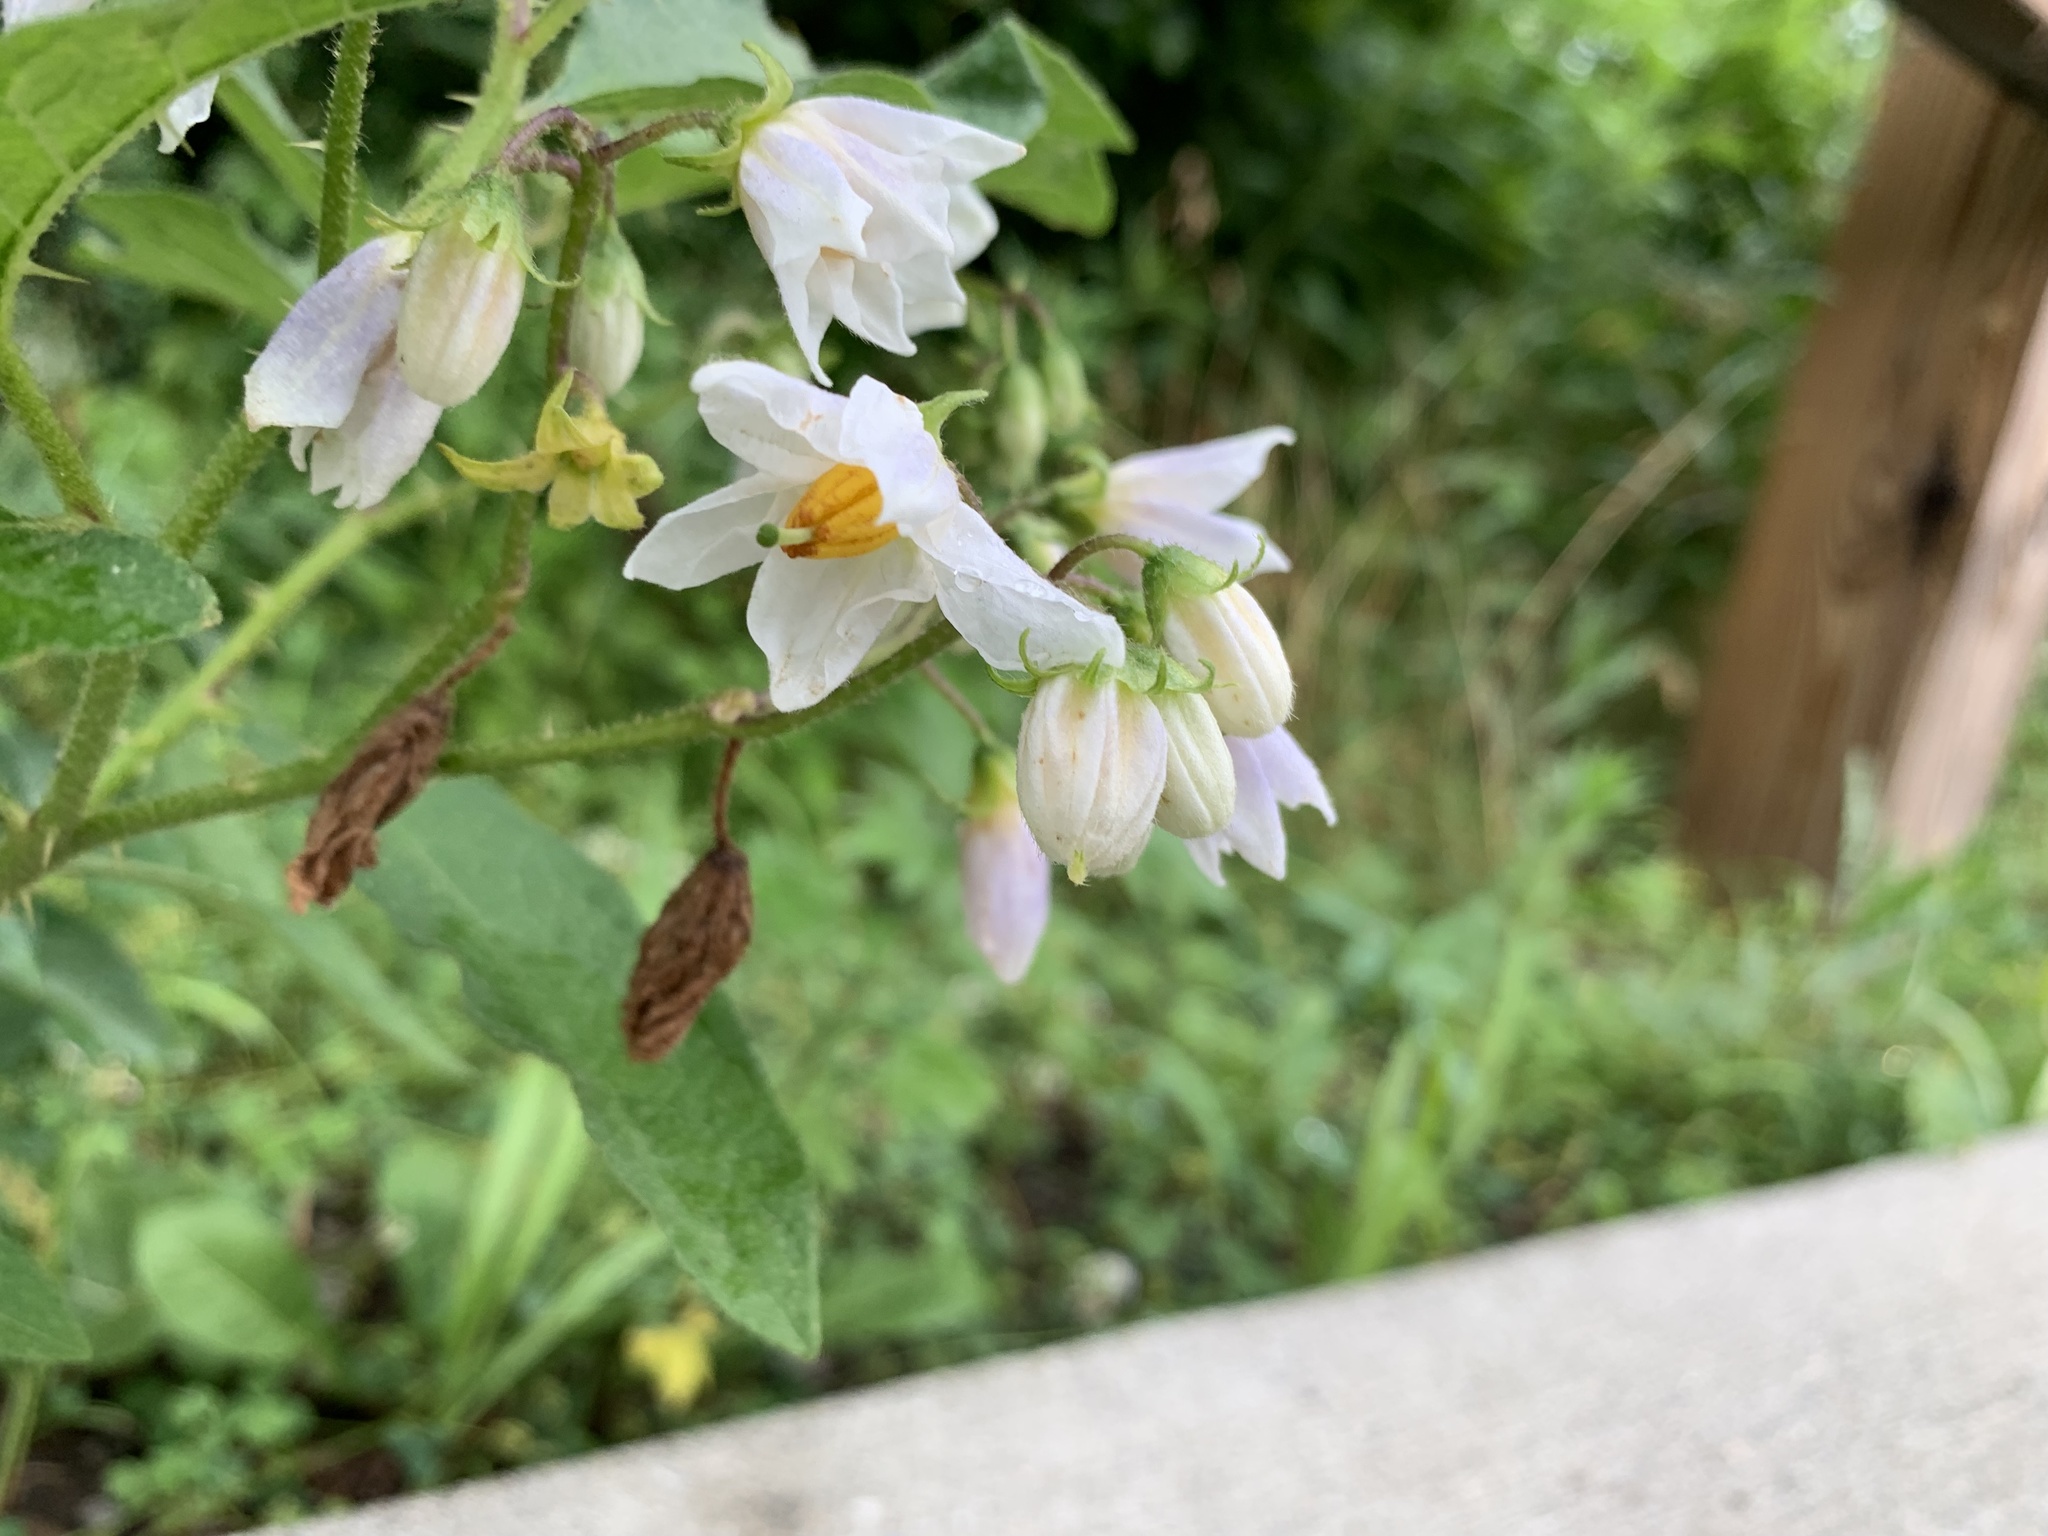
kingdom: Plantae
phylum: Tracheophyta
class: Magnoliopsida
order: Solanales
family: Solanaceae
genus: Solanum
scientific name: Solanum carolinense
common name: Horse-nettle
